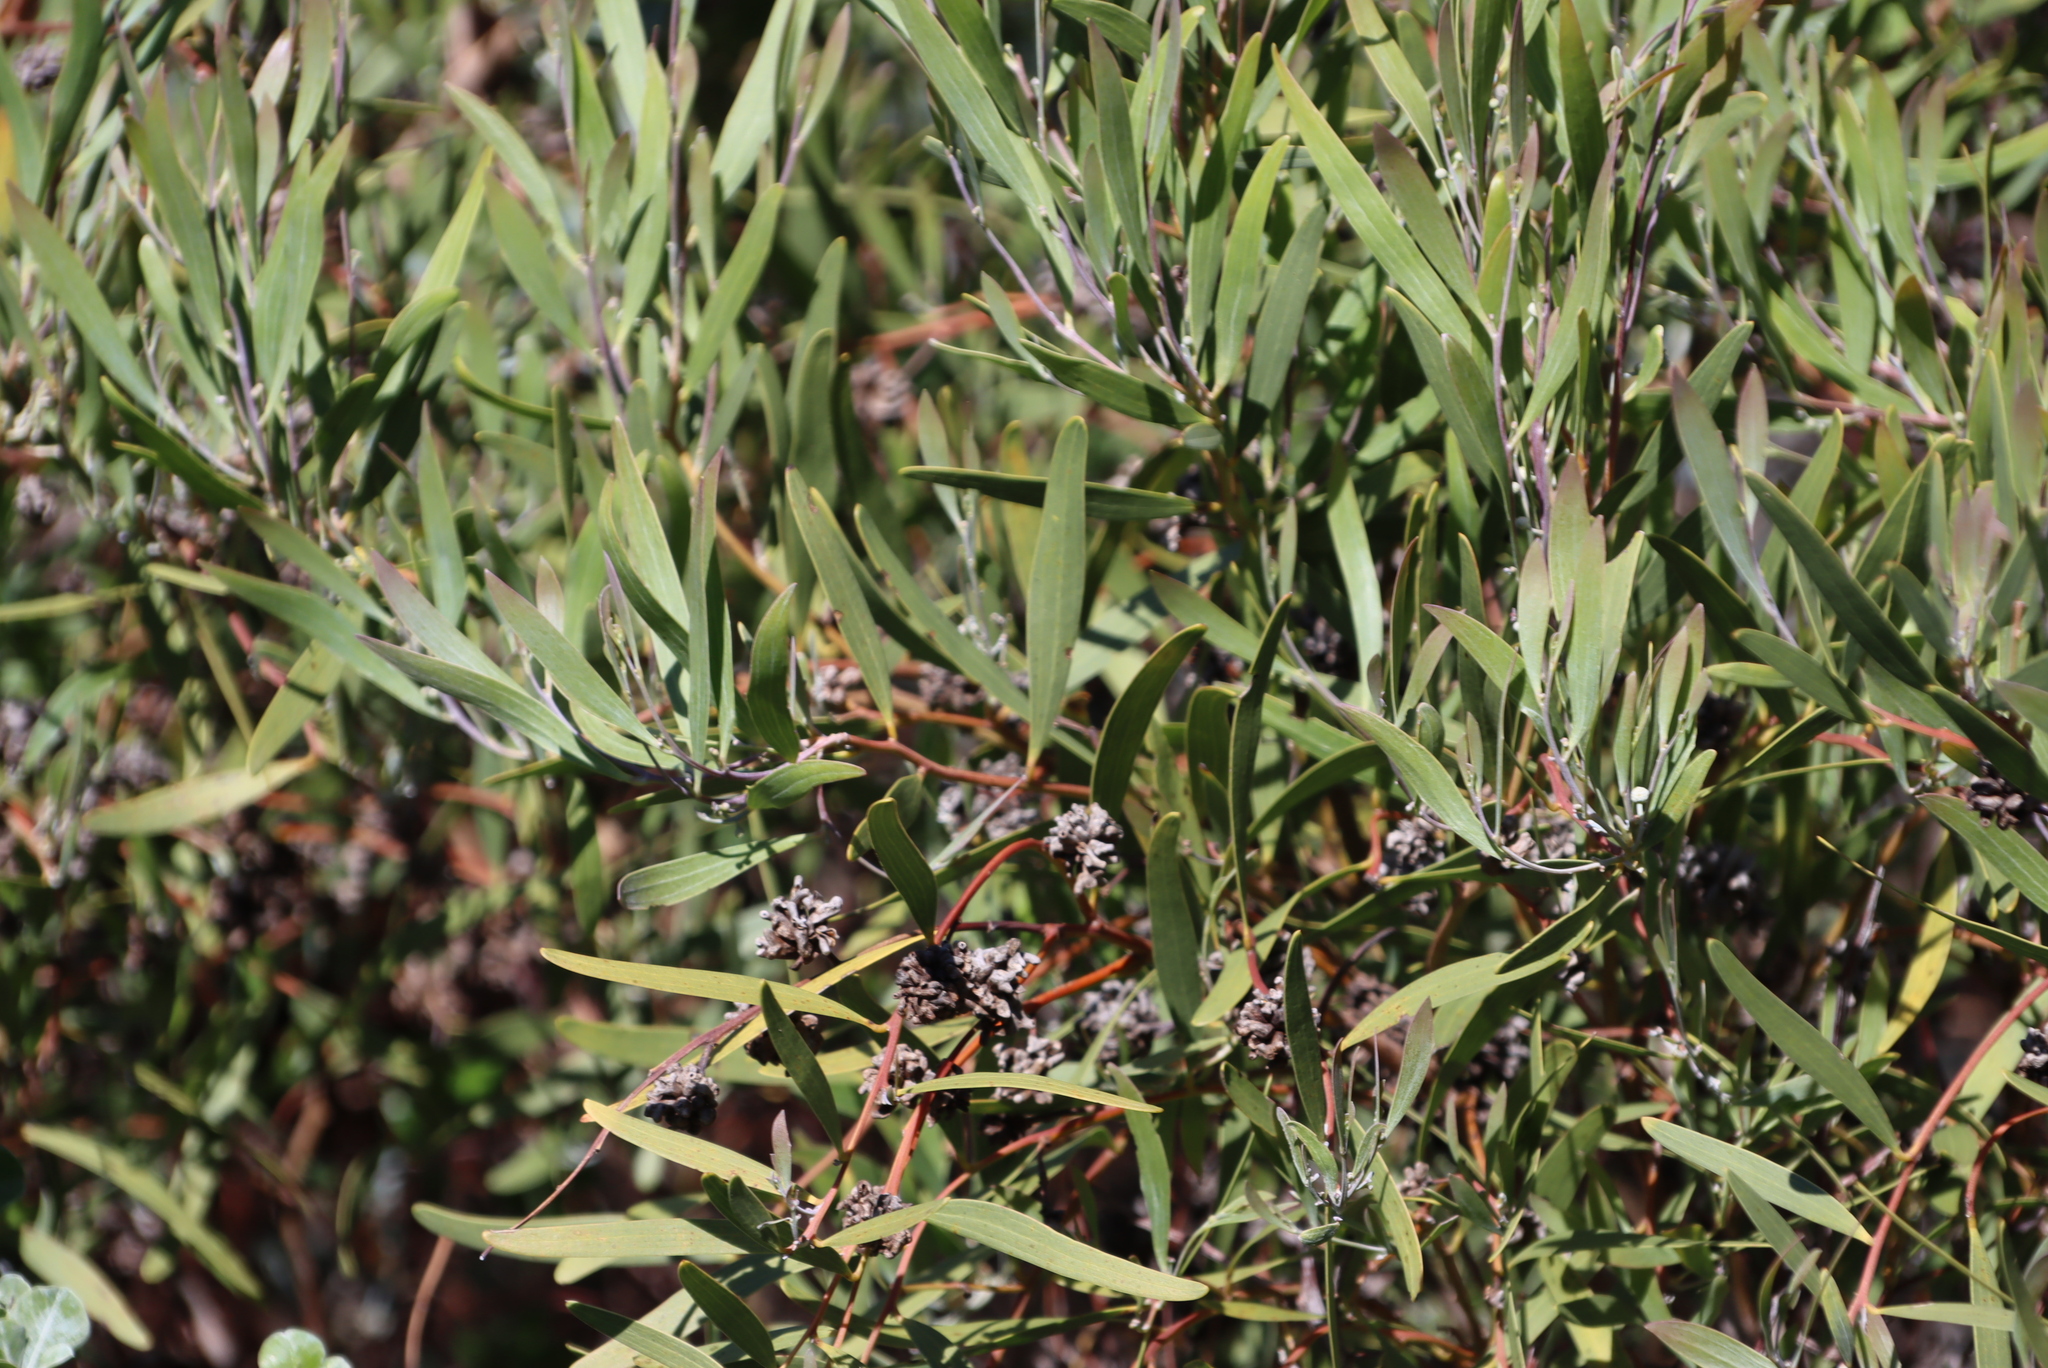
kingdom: Animalia
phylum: Arthropoda
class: Insecta
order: Diptera
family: Cecidomyiidae
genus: Dasineura
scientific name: Dasineura dielsi
